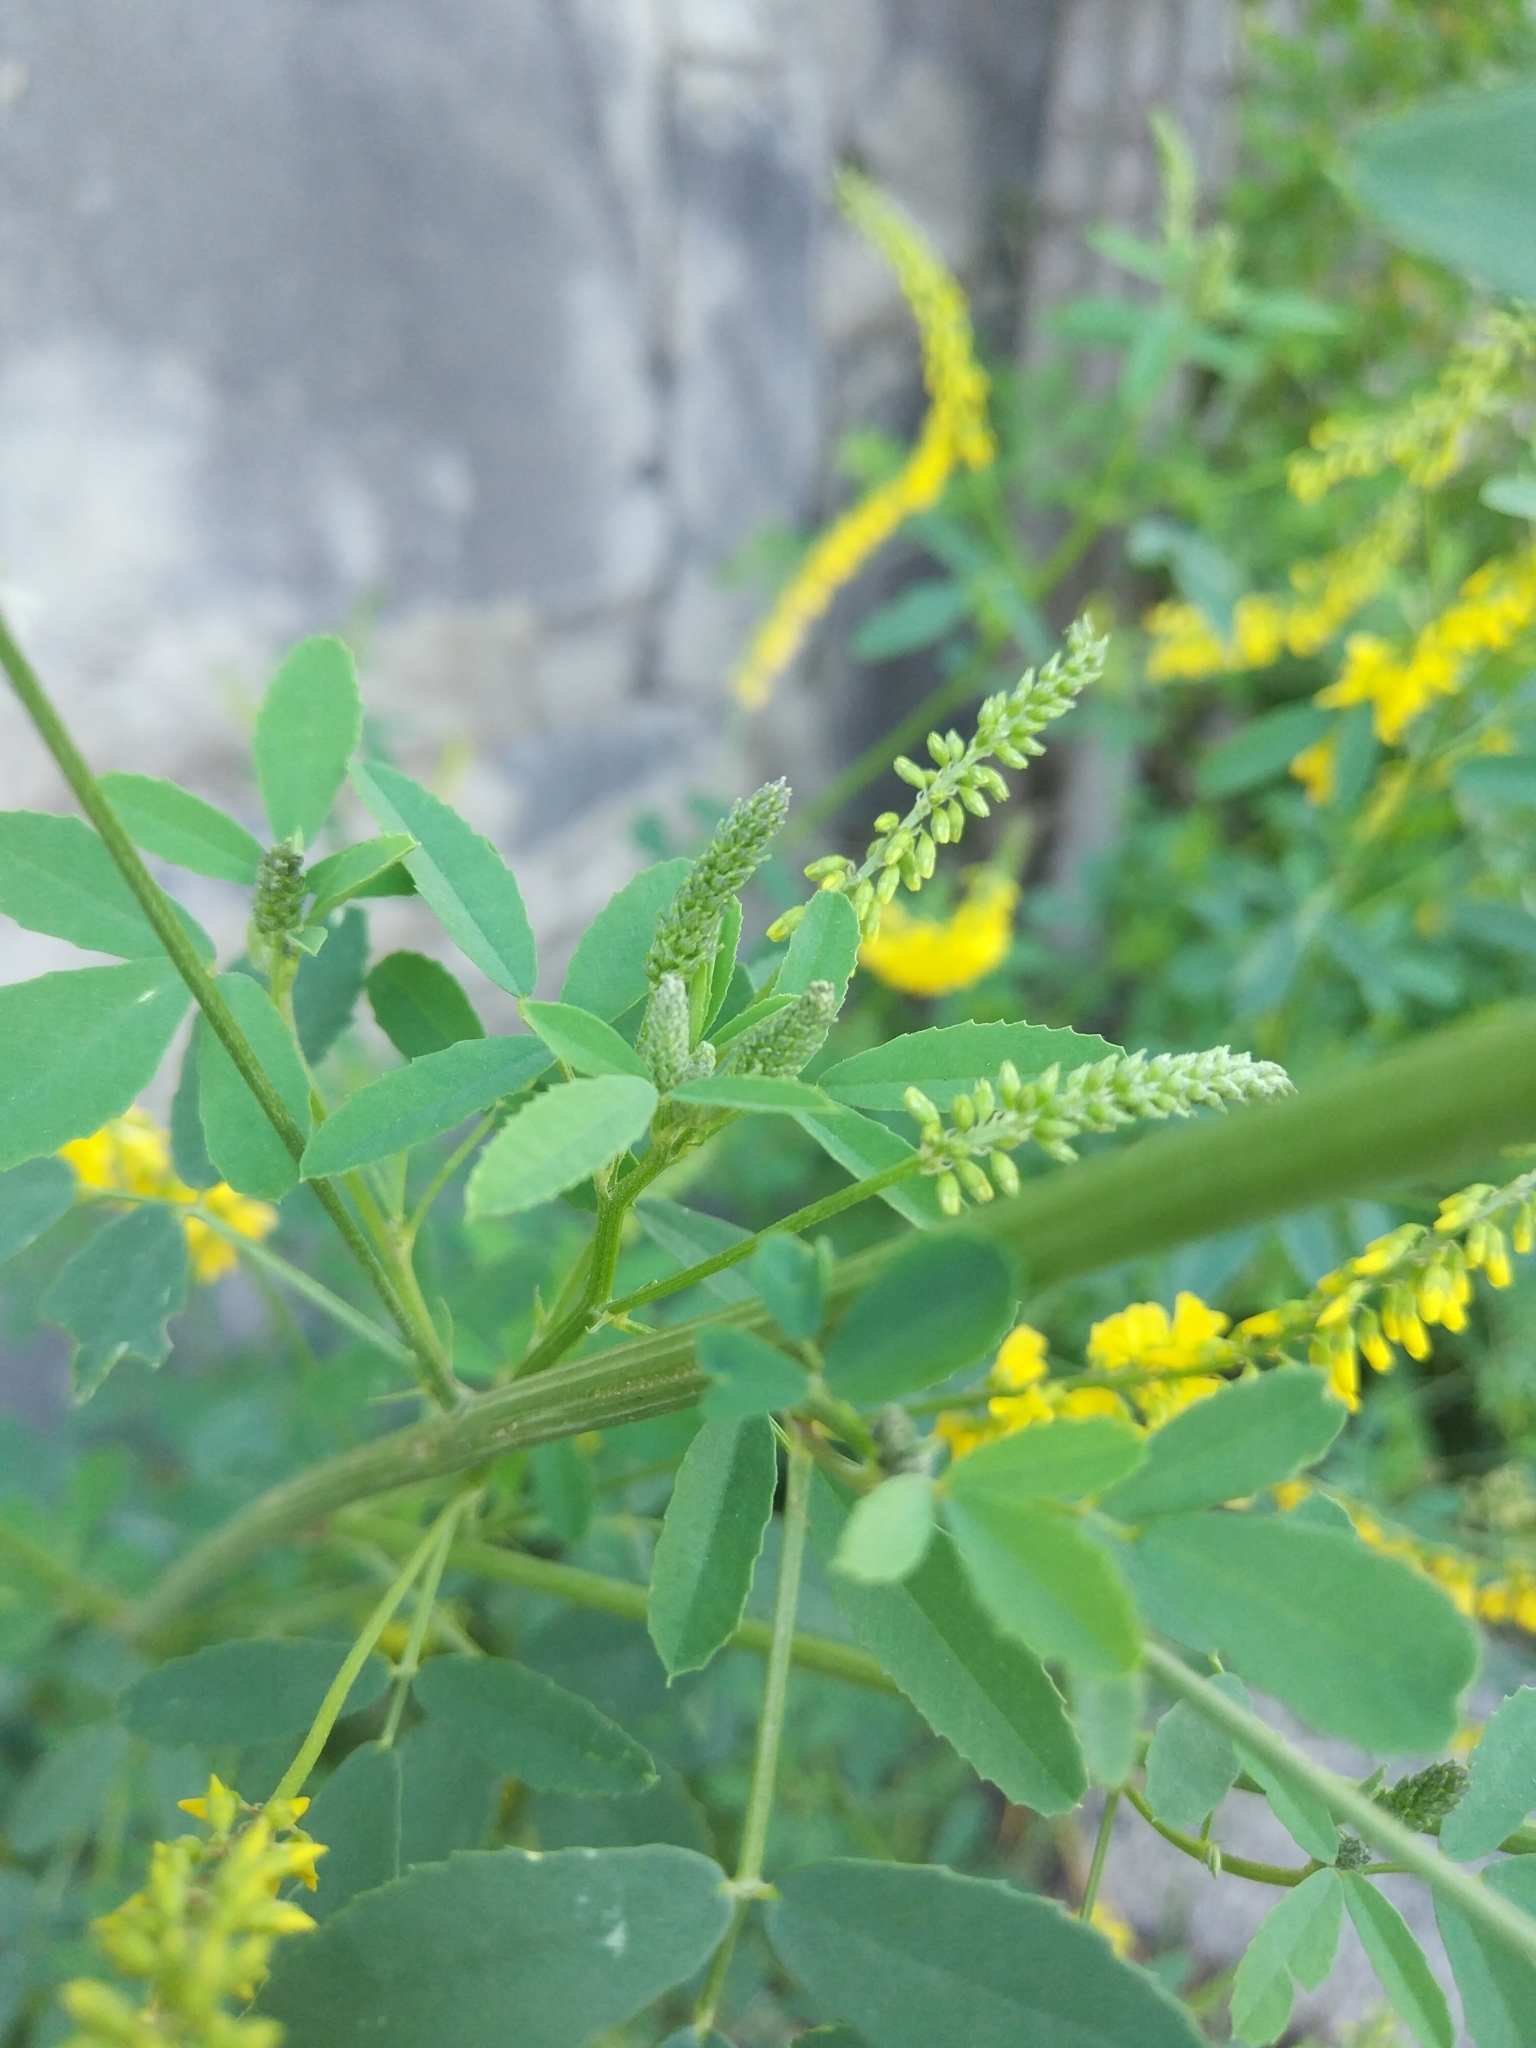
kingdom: Plantae
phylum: Tracheophyta
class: Magnoliopsida
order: Fabales
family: Fabaceae
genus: Melilotus
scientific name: Melilotus officinalis
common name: Sweetclover
